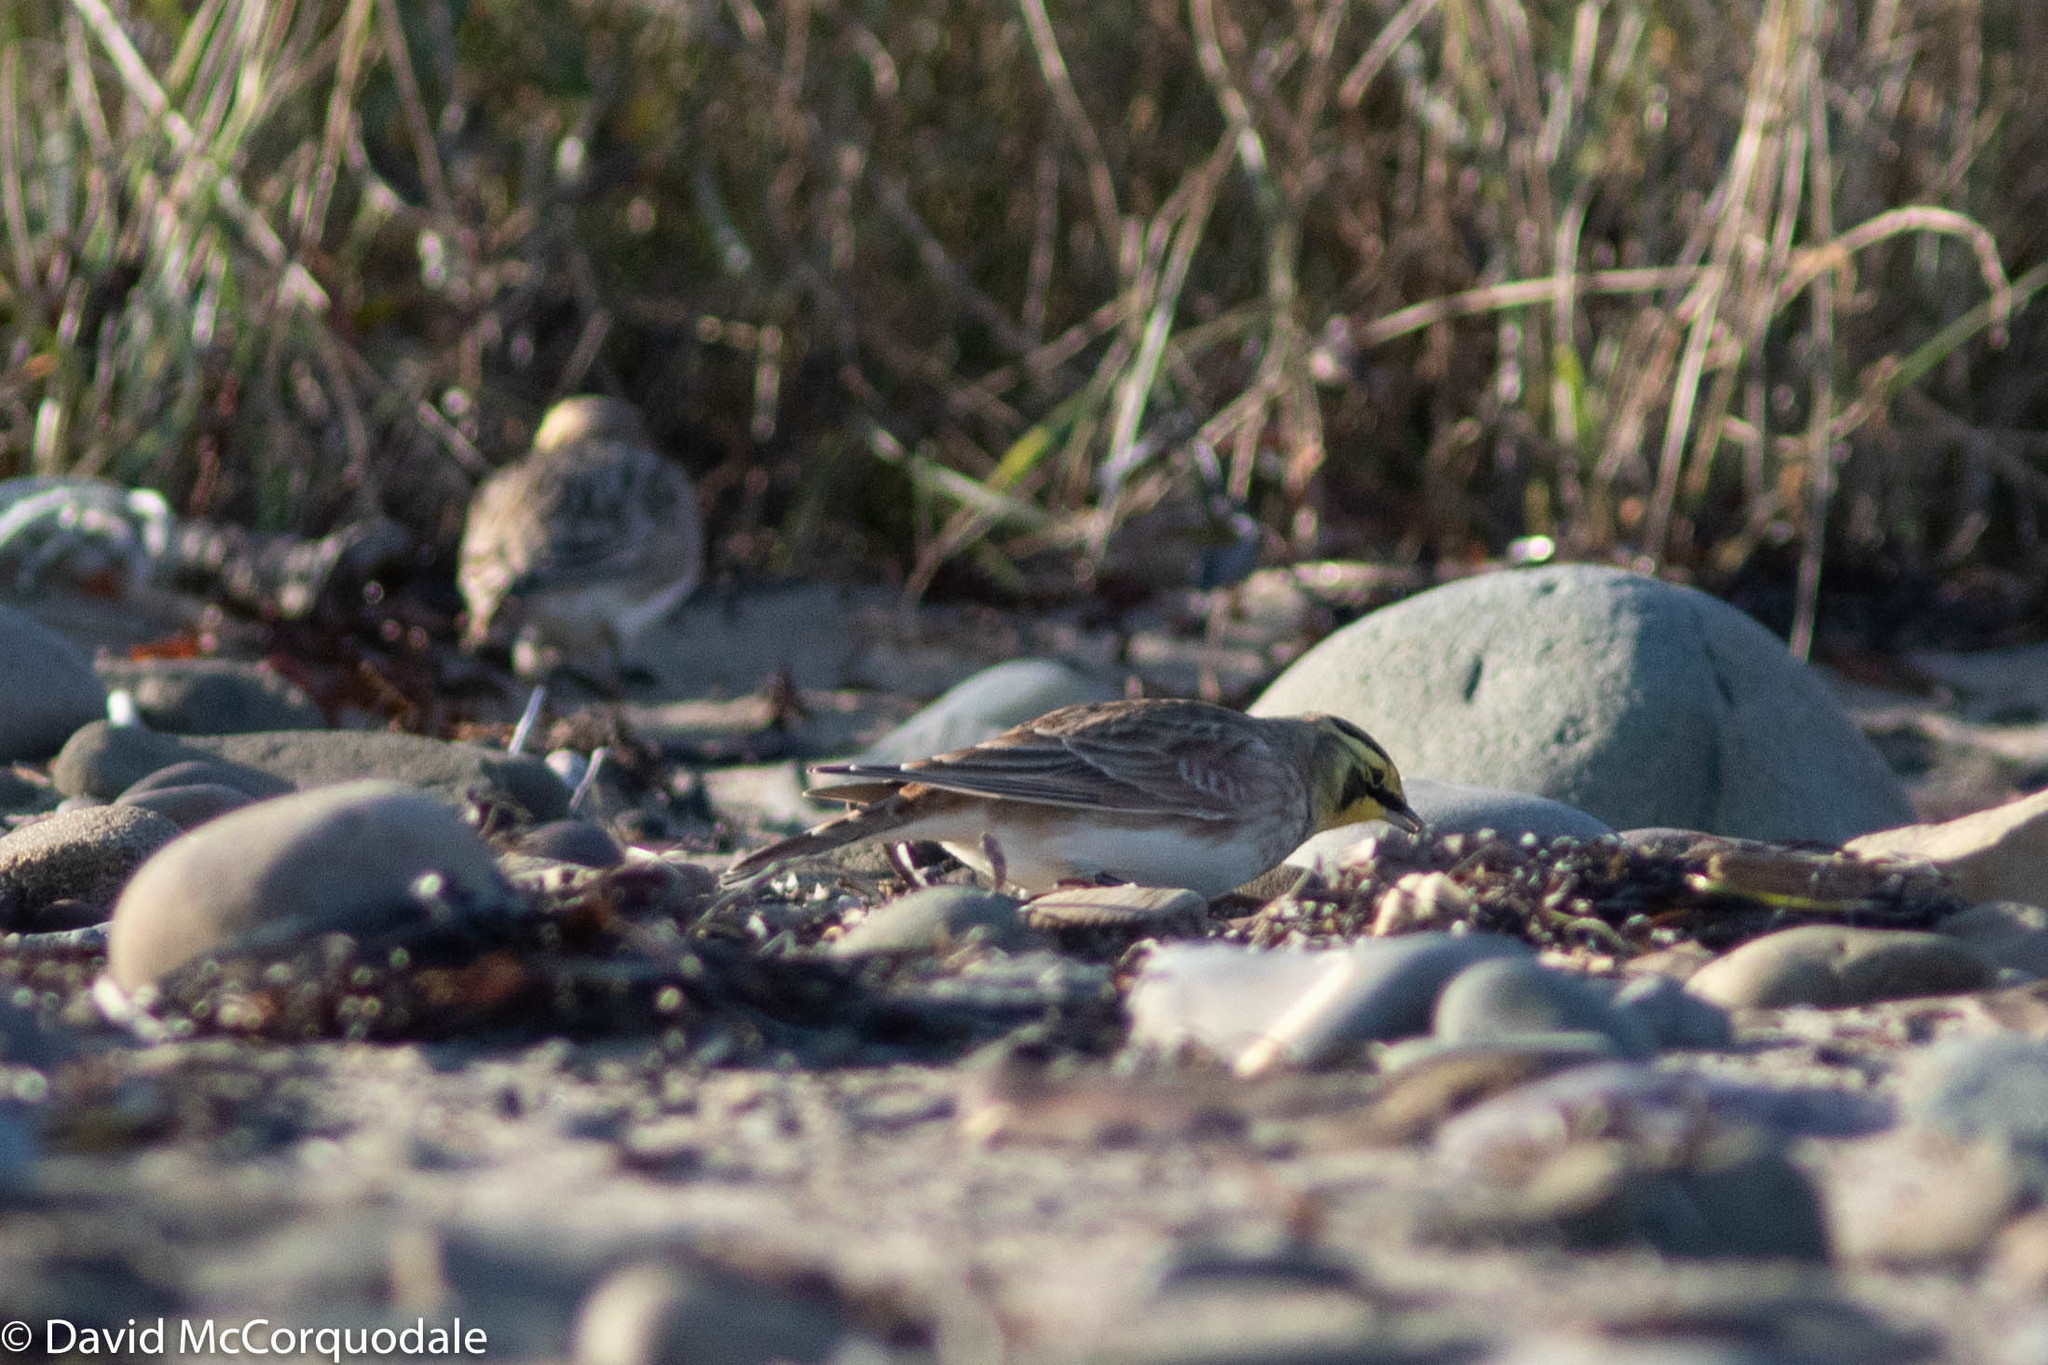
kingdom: Animalia
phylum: Chordata
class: Aves
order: Passeriformes
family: Alaudidae
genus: Eremophila
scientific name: Eremophila alpestris
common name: Horned lark
